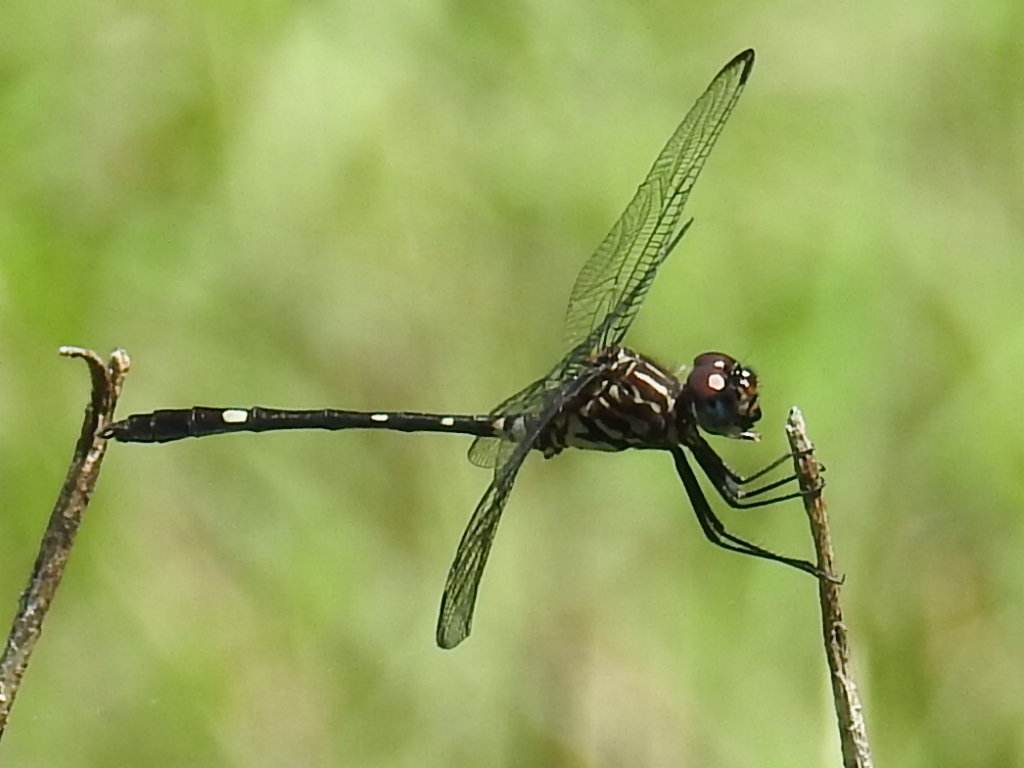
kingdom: Animalia
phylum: Arthropoda
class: Insecta
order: Odonata
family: Libellulidae
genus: Dythemis
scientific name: Dythemis velox
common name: Swift setwing
